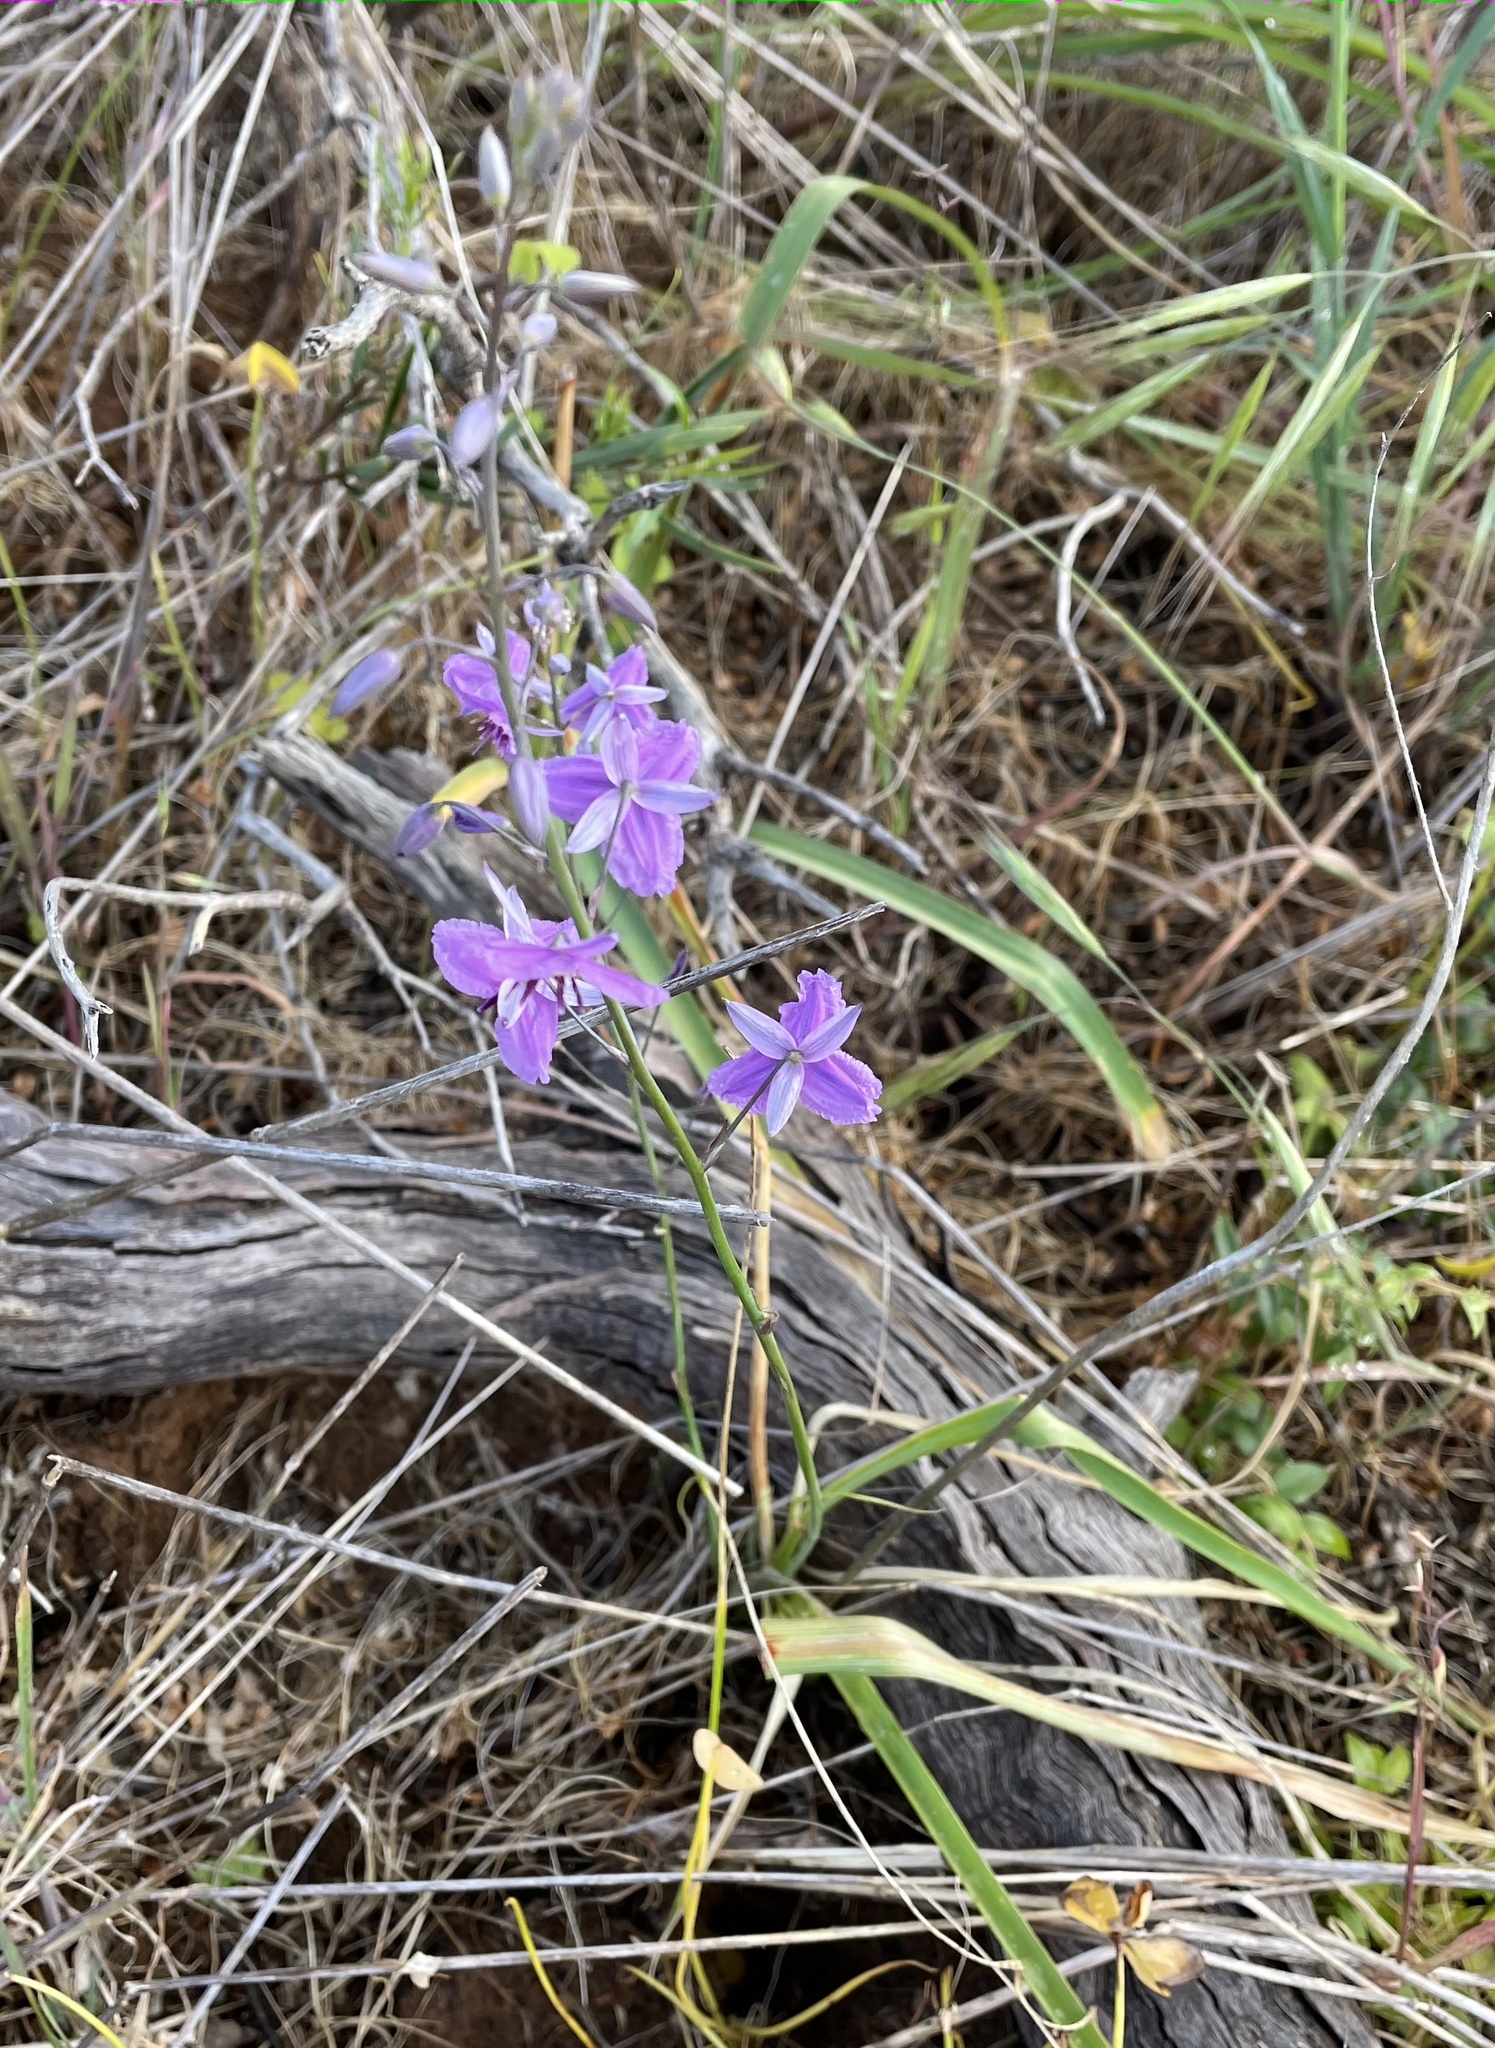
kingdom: Plantae
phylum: Tracheophyta
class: Liliopsida
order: Asparagales
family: Asparagaceae
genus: Arthropodium
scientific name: Arthropodium strictum
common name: Chocolate-lily
